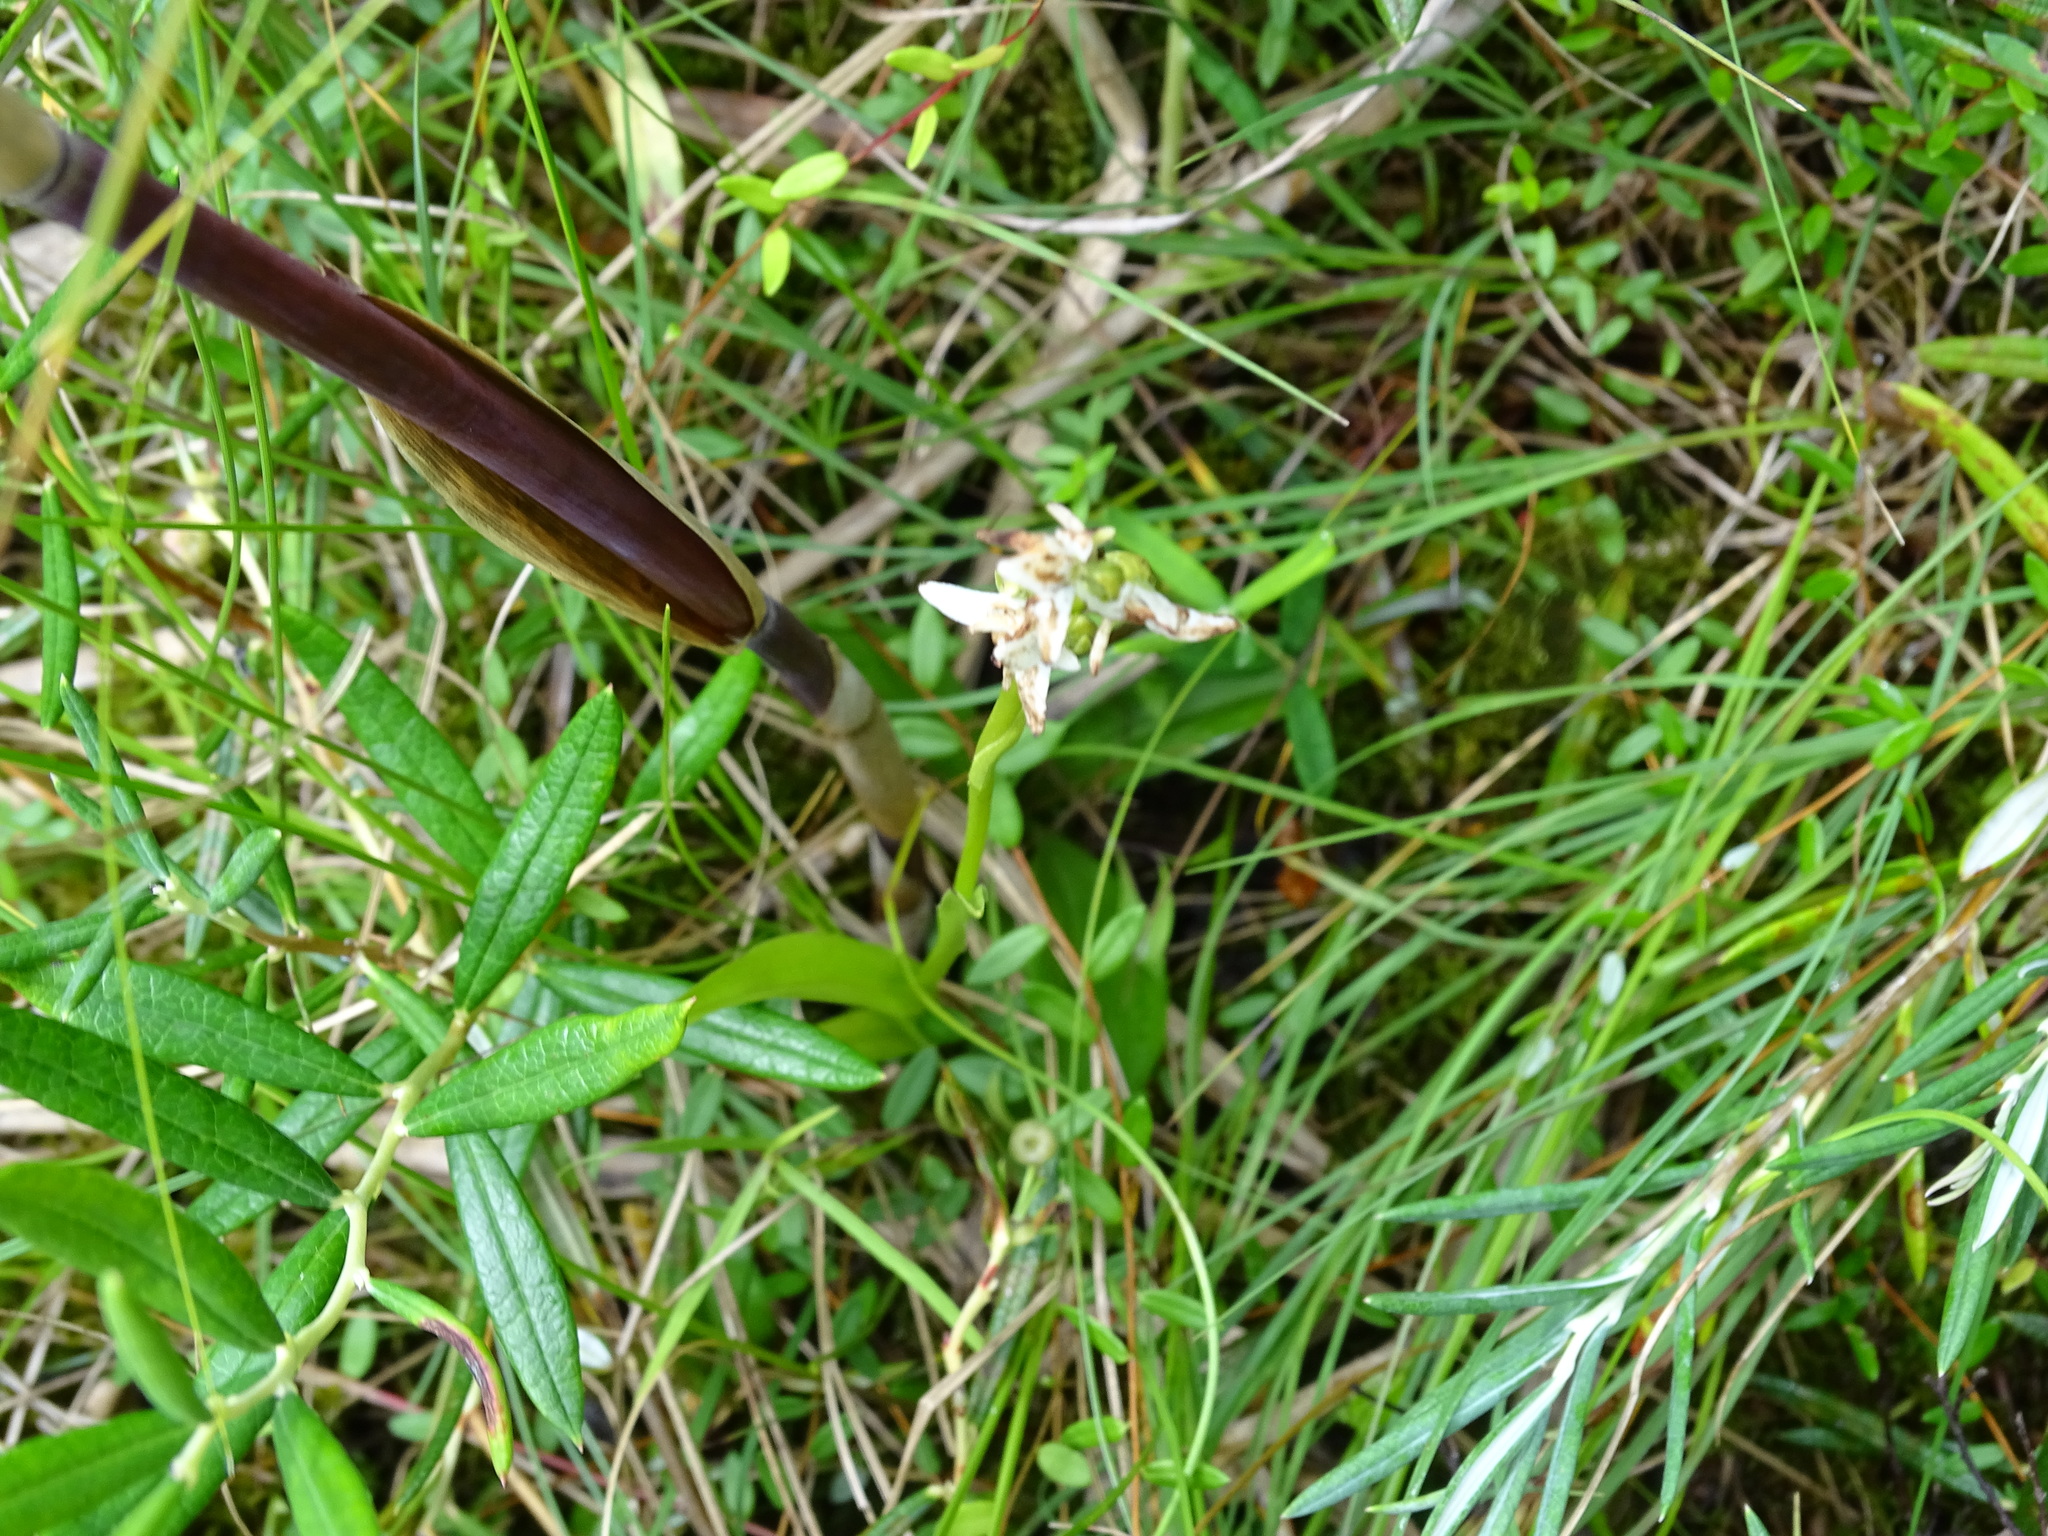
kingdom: Plantae
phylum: Tracheophyta
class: Liliopsida
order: Asparagales
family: Orchidaceae
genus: Platanthera
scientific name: Platanthera dilatata
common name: Bog candles
